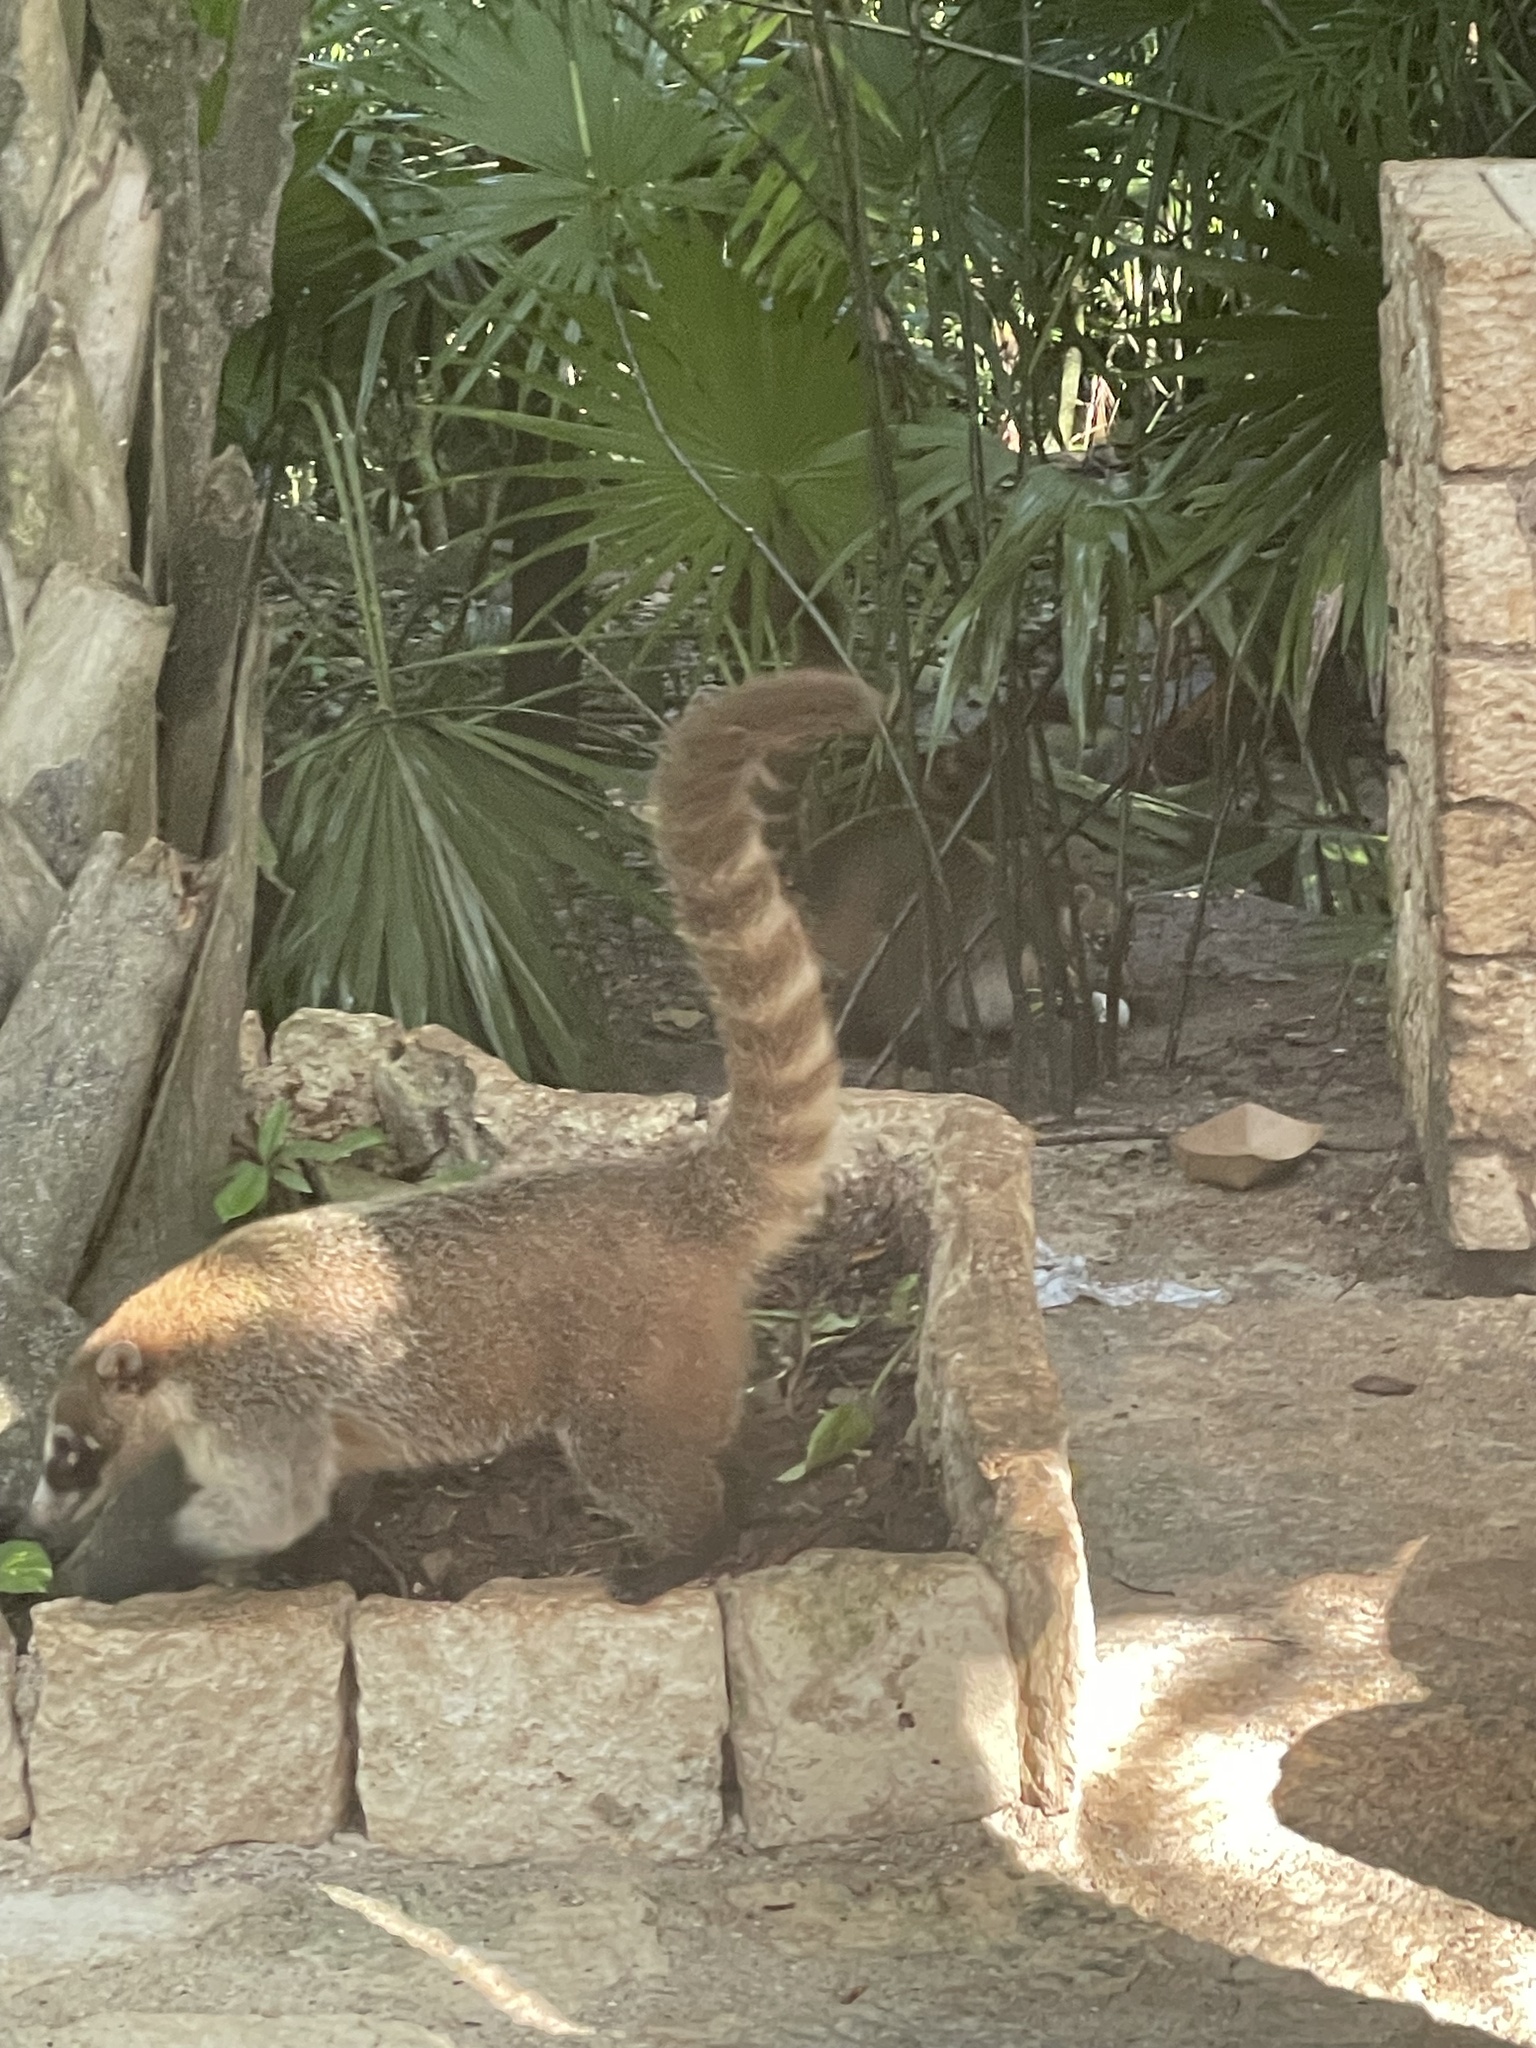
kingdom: Animalia
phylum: Chordata
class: Mammalia
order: Carnivora
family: Procyonidae
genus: Nasua
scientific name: Nasua narica
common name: White-nosed coati
